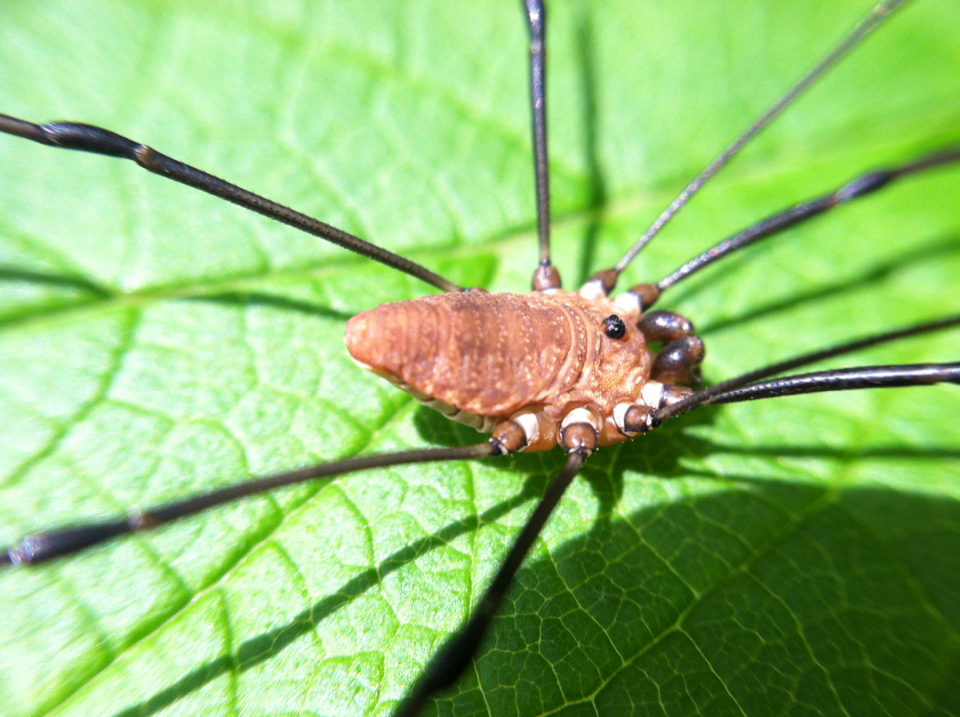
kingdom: Animalia
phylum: Arthropoda
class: Arachnida
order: Opiliones
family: Sclerosomatidae
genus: Leiobunum
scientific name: Leiobunum calcar
